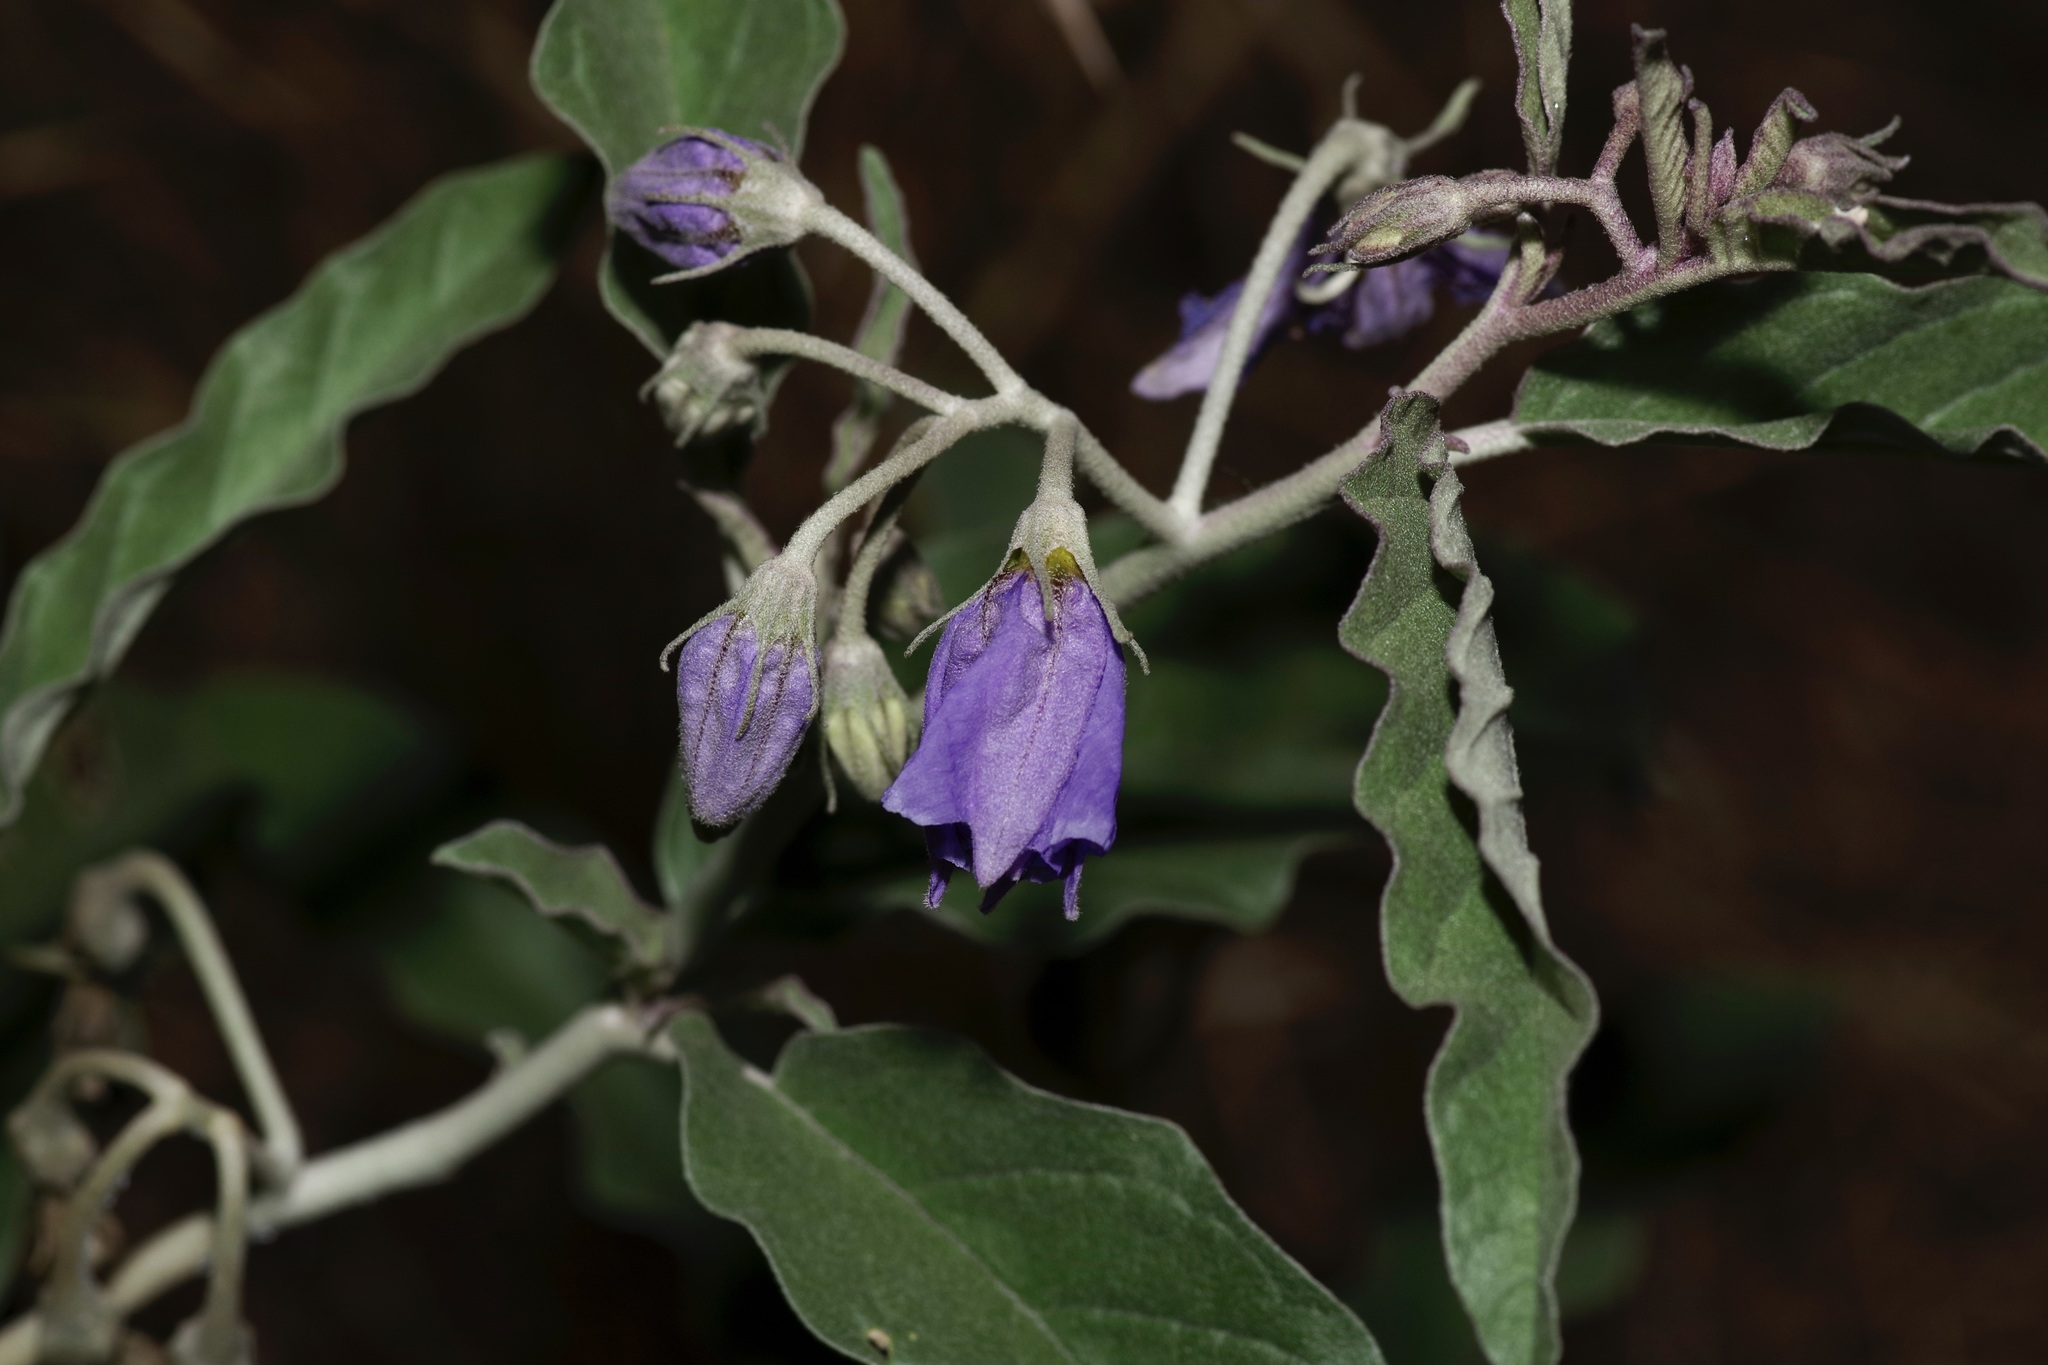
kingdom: Plantae
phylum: Tracheophyta
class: Magnoliopsida
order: Solanales
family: Solanaceae
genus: Solanum
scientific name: Solanum elaeagnifolium
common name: Silverleaf nightshade
